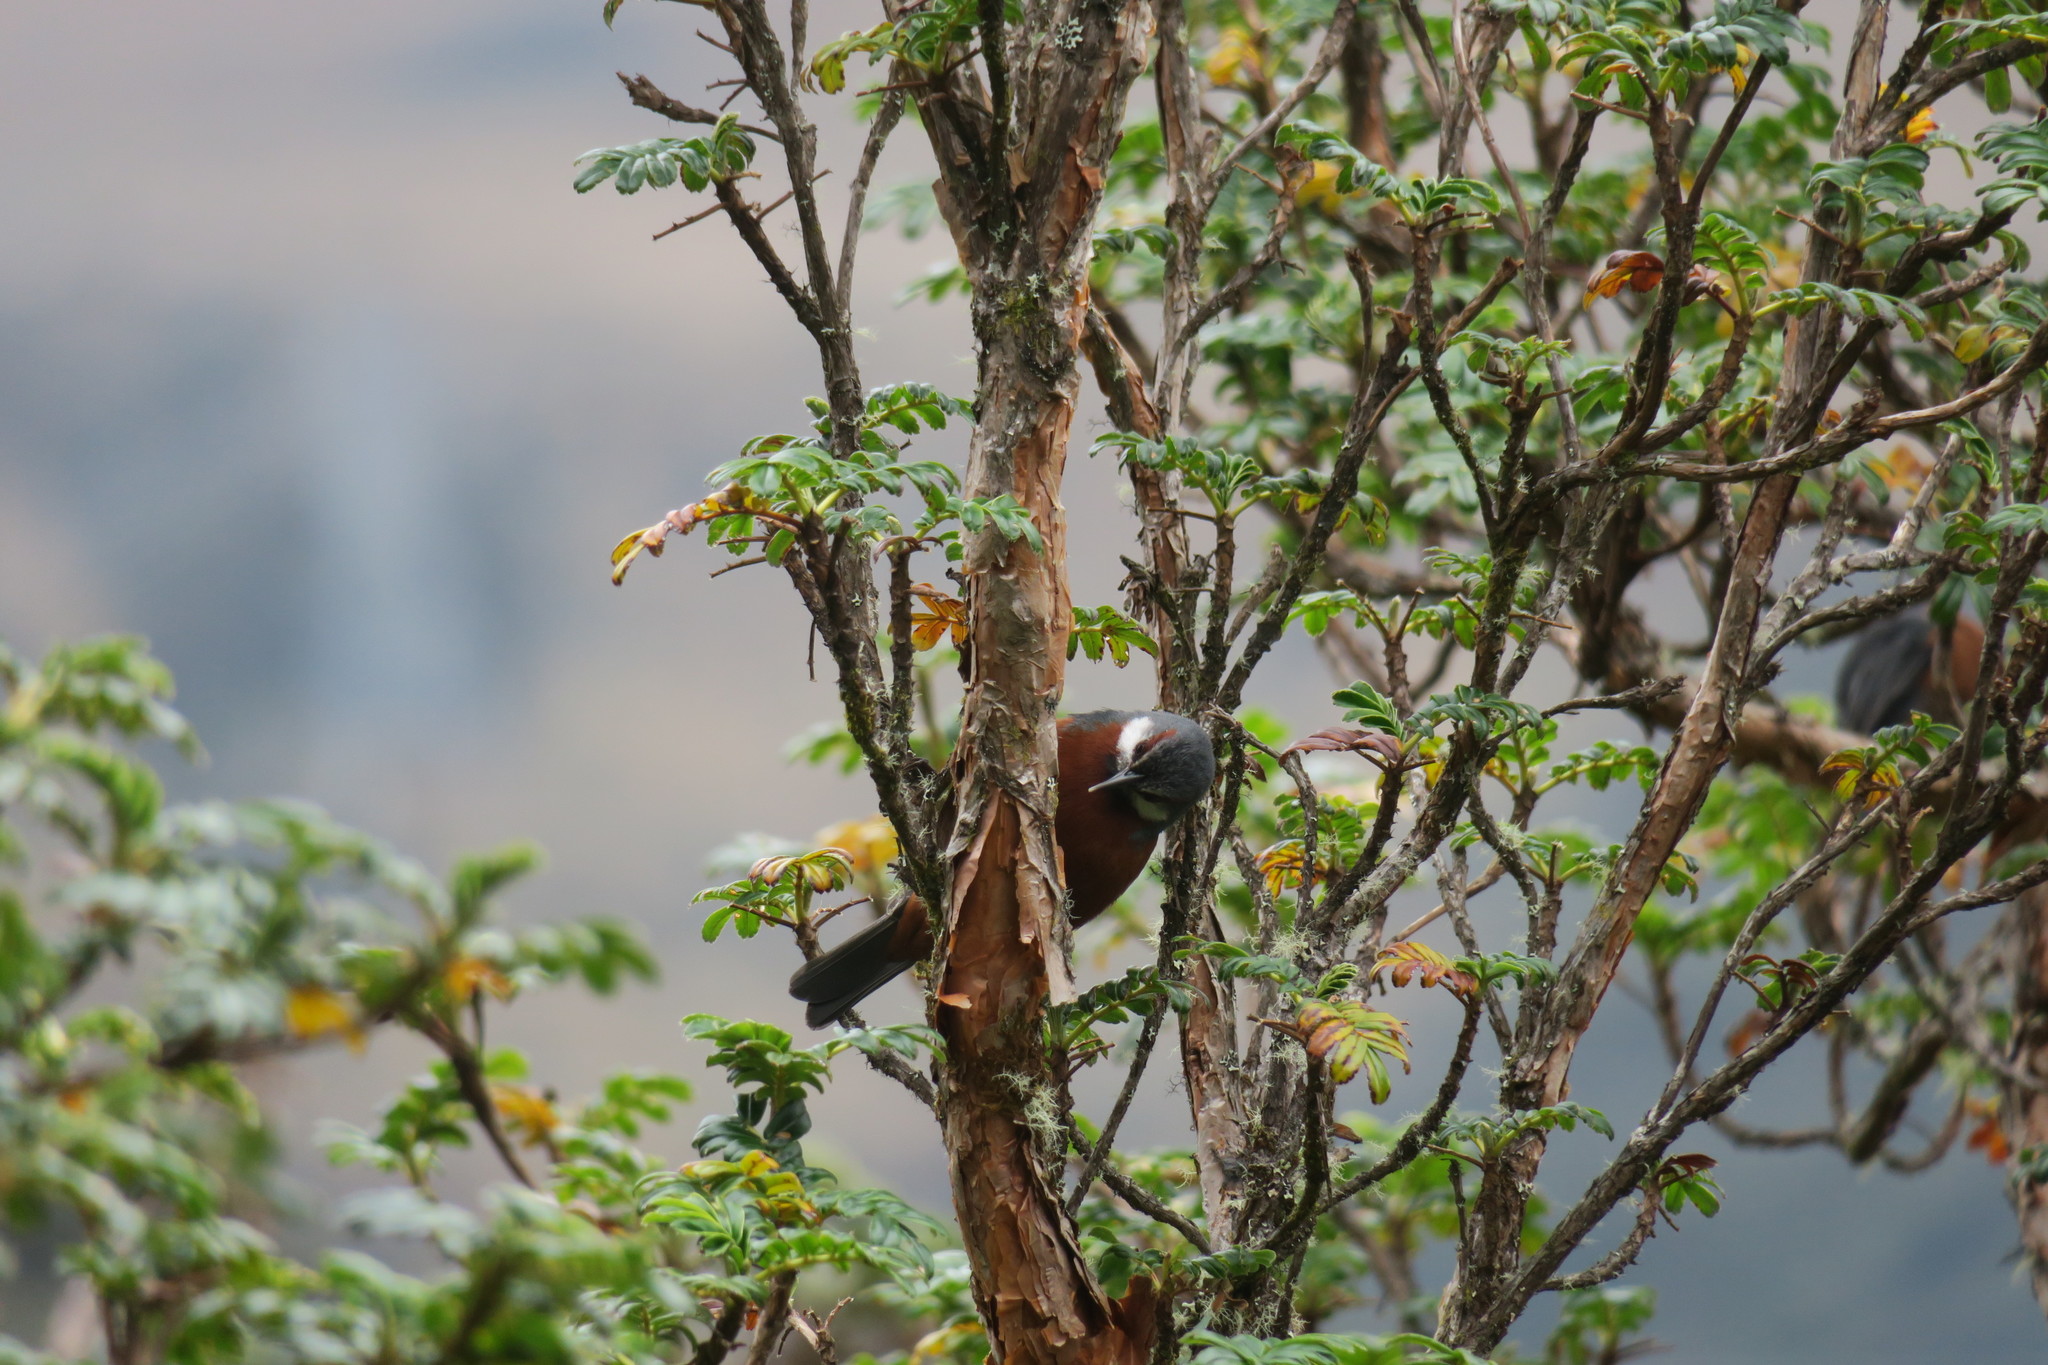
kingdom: Animalia
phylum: Chordata
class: Aves
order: Passeriformes
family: Thraupidae
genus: Conirostrum
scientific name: Conirostrum binghami
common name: Giant conebill
